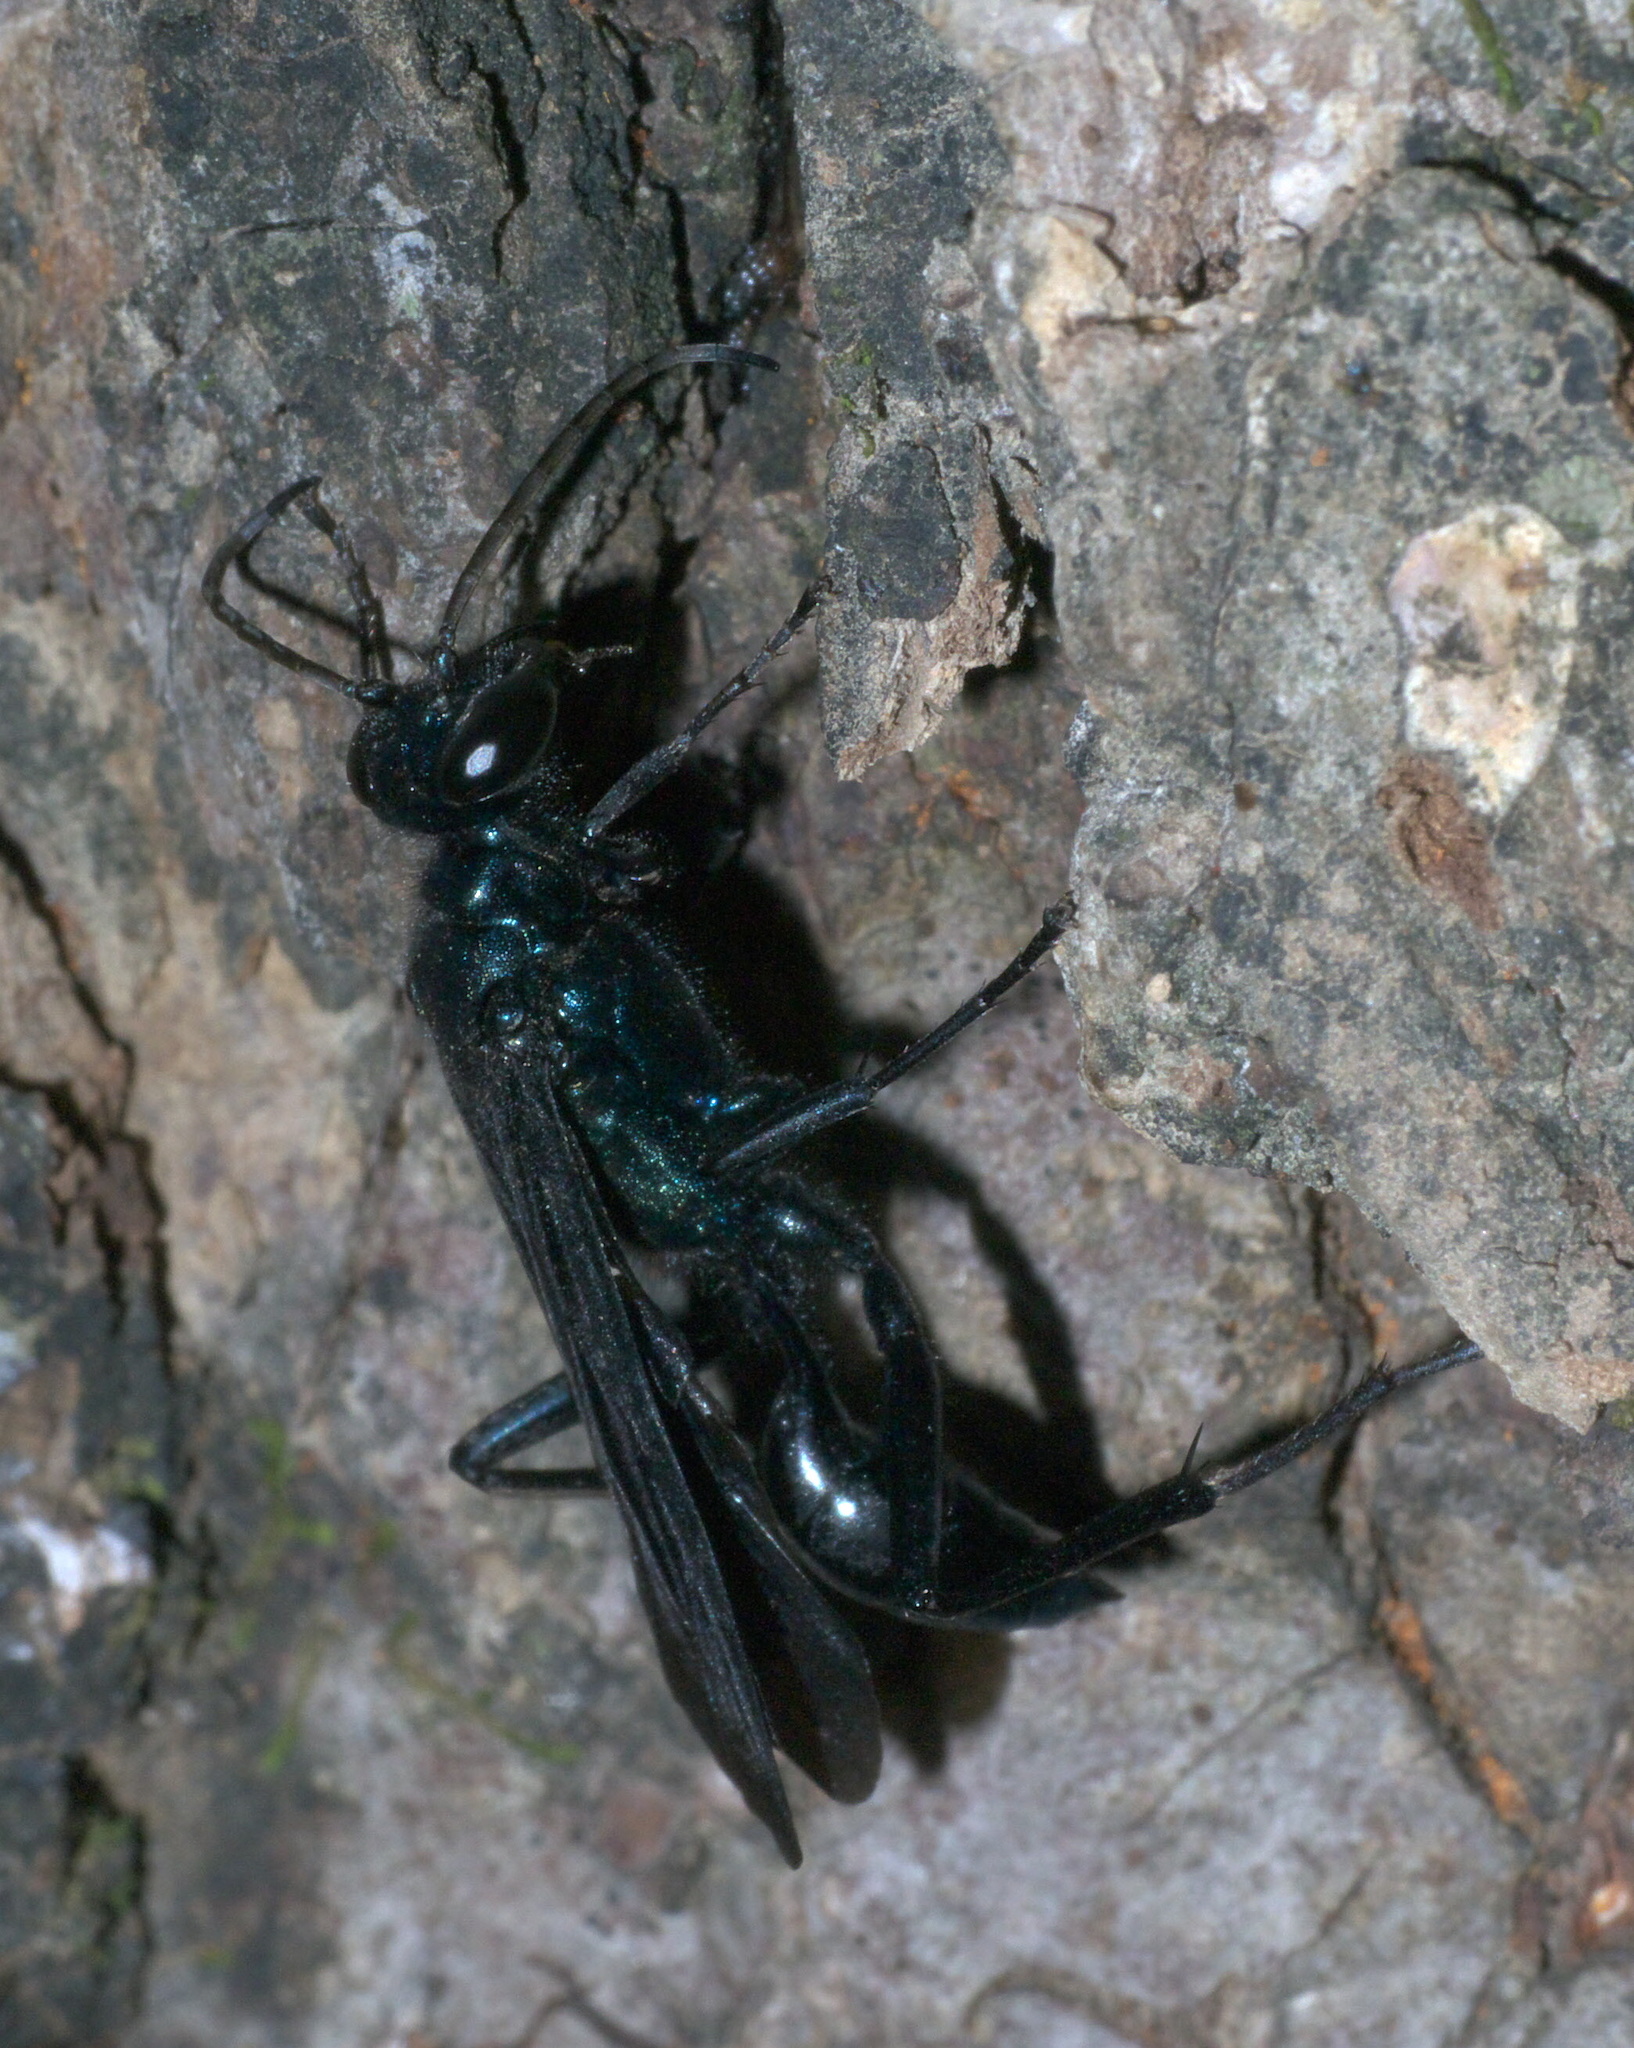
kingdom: Animalia
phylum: Arthropoda
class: Insecta
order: Hymenoptera
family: Sphecidae
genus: Chalybion
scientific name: Chalybion californicum
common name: Mud dauber
